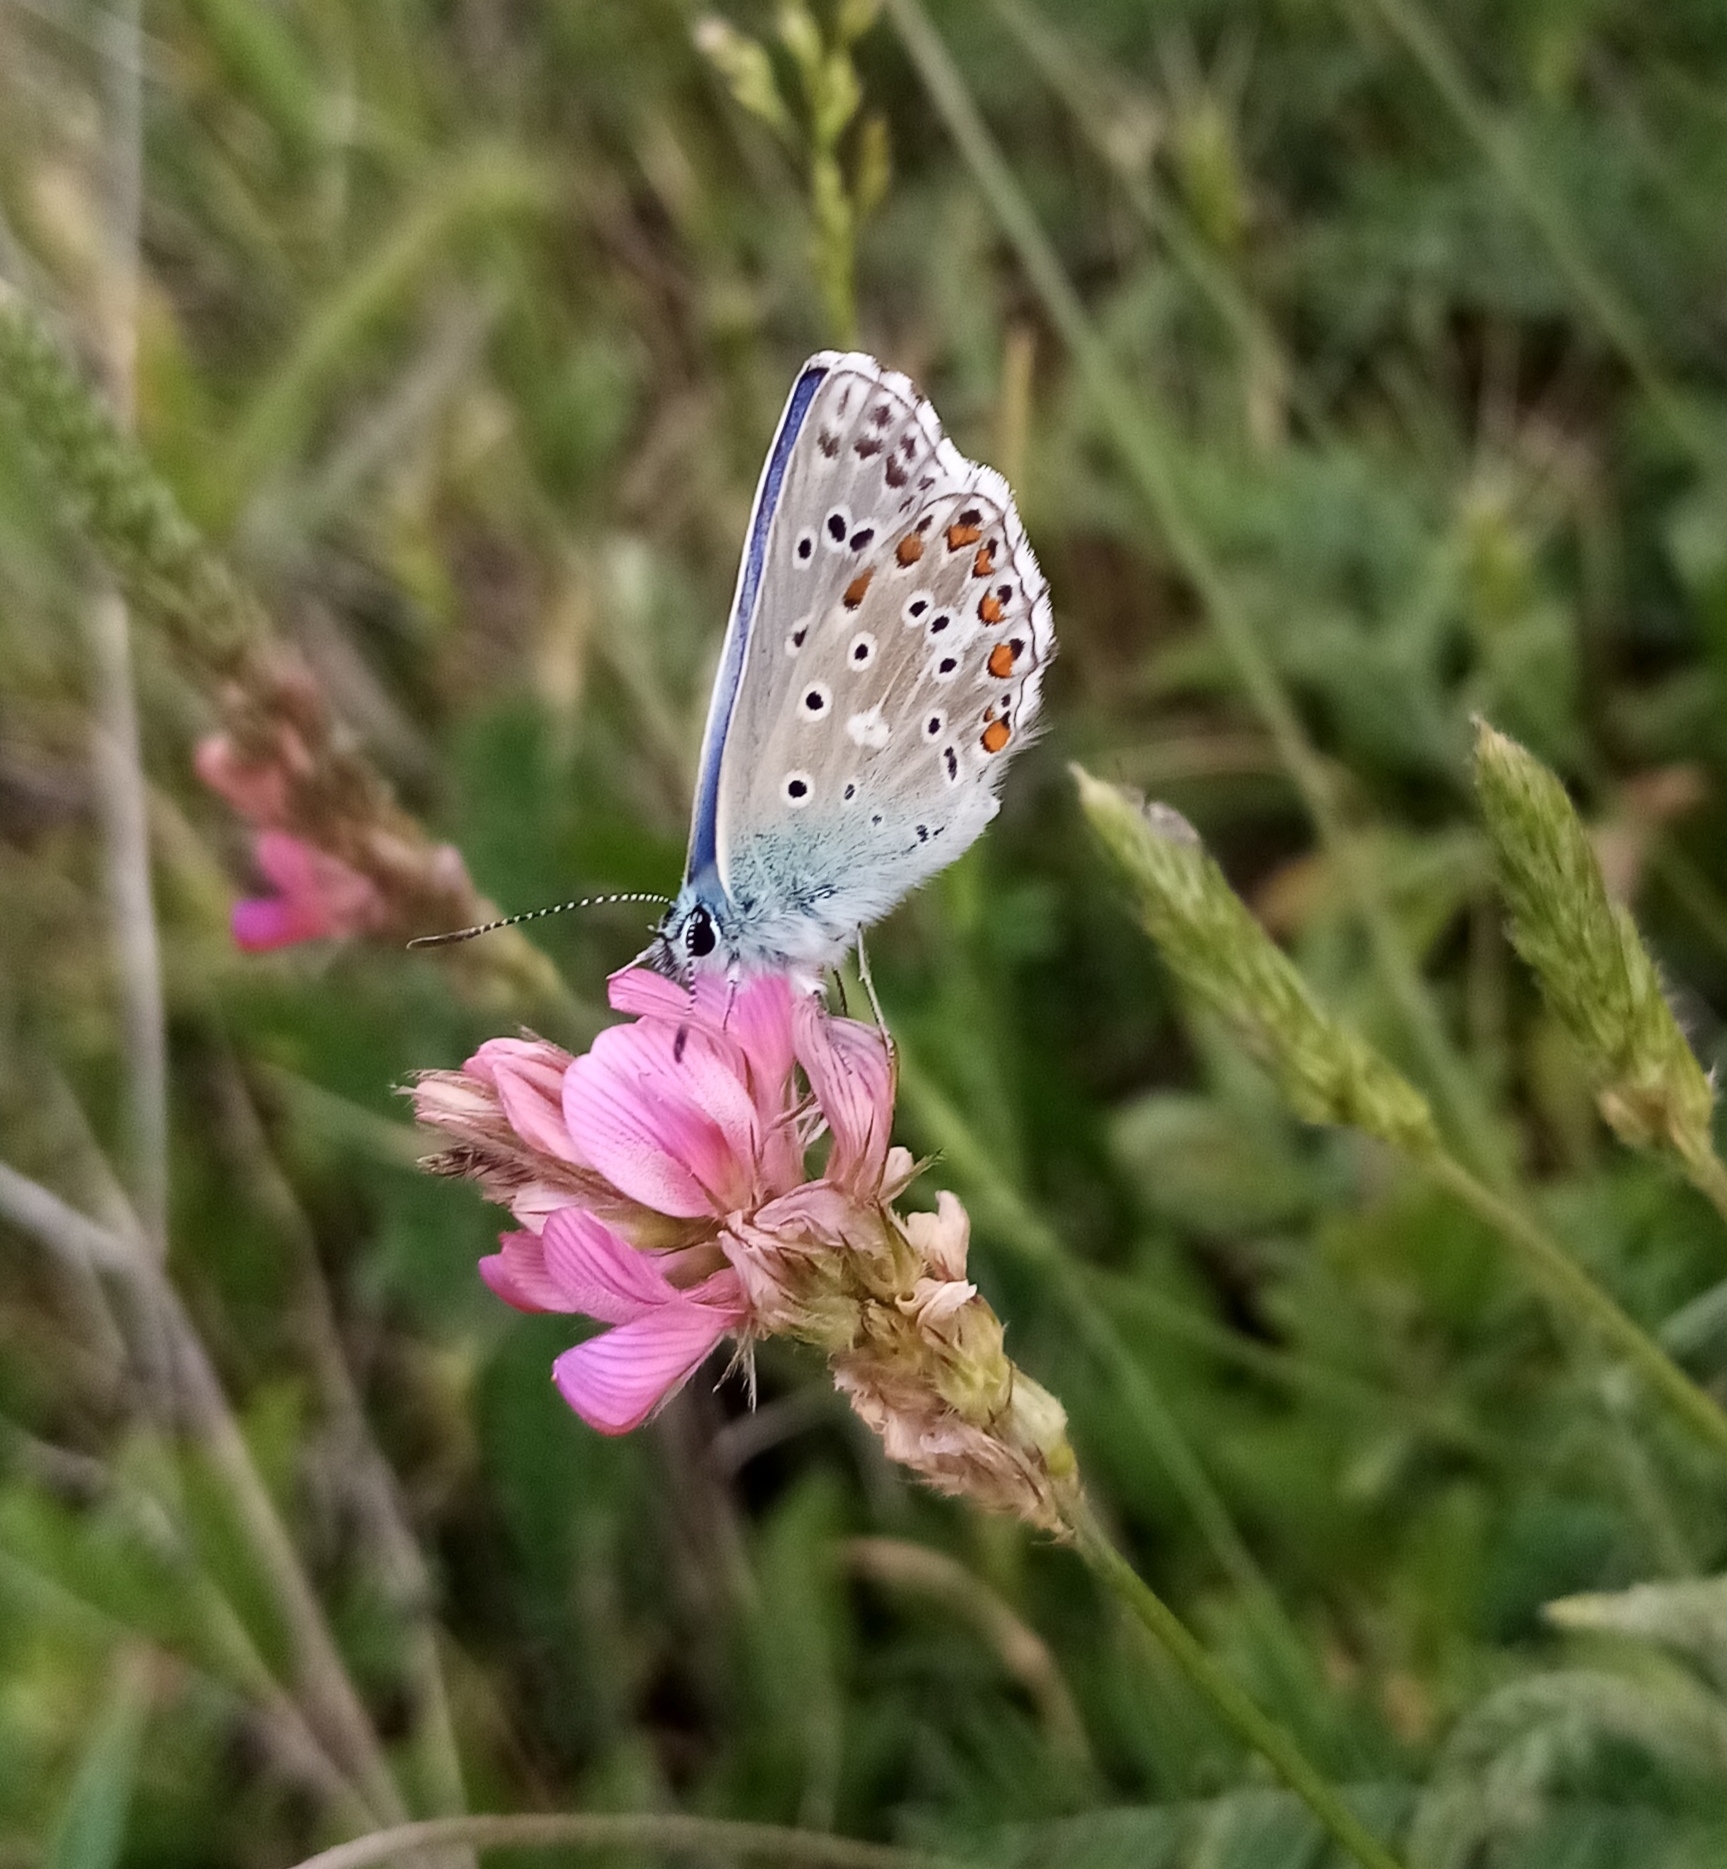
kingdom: Animalia
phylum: Arthropoda
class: Insecta
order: Lepidoptera
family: Lycaenidae
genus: Lysandra
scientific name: Lysandra bellargus
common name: Adonis blue
